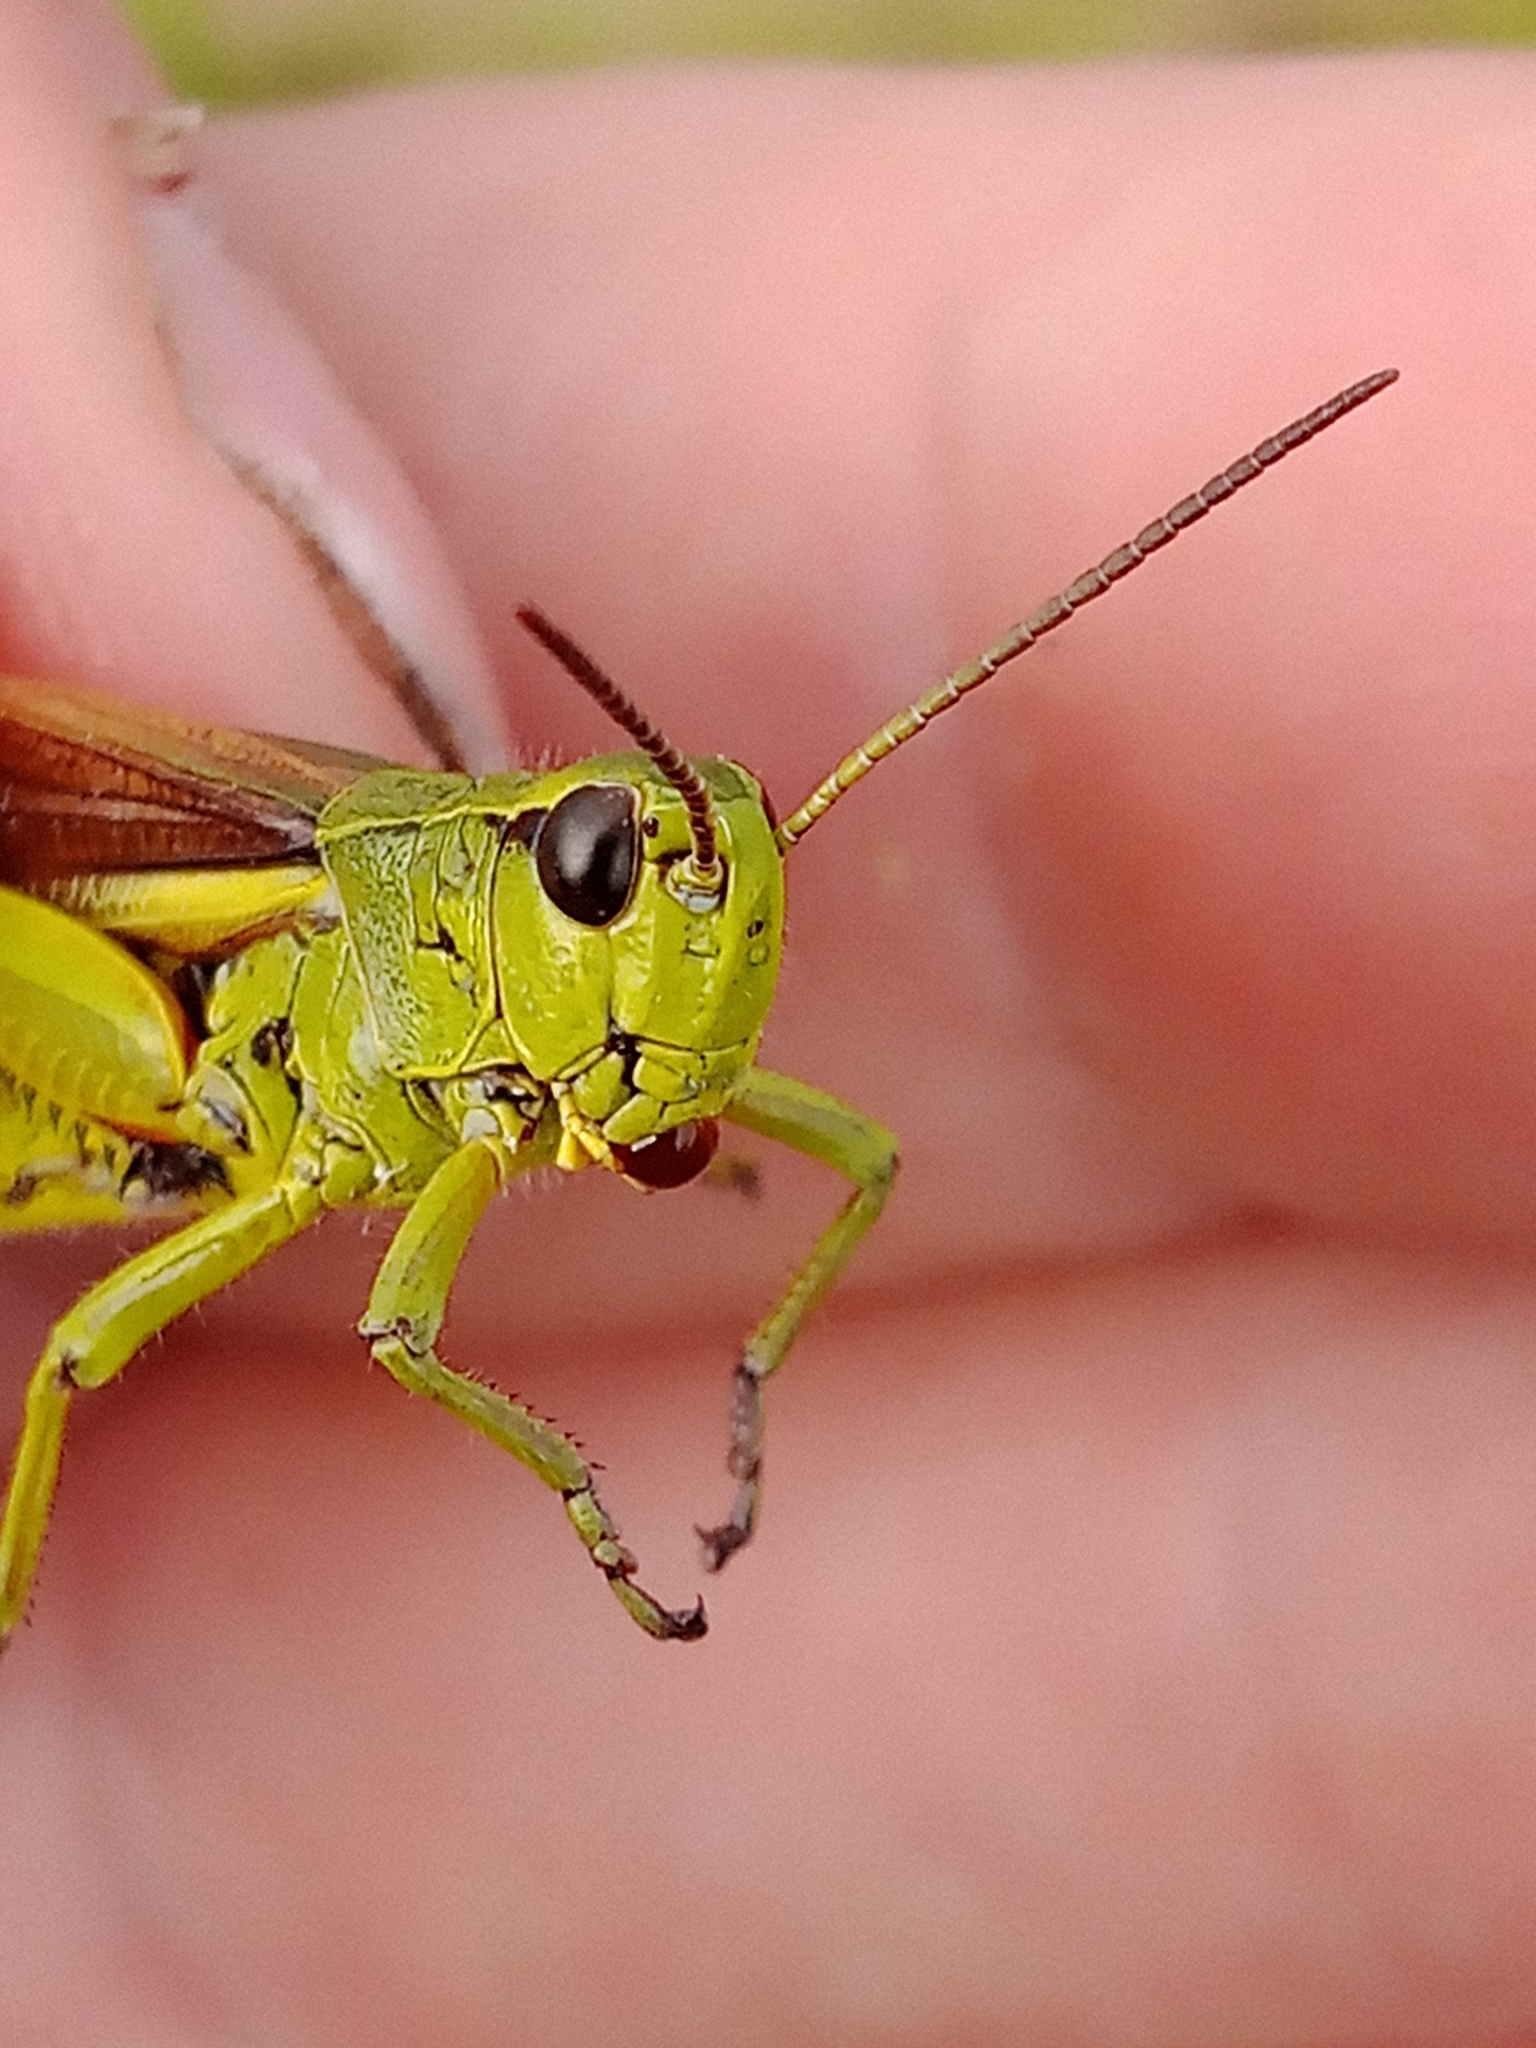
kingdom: Animalia
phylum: Arthropoda
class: Insecta
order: Orthoptera
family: Acrididae
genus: Stethophyma
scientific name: Stethophyma grossum
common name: Large marsh grasshopper
